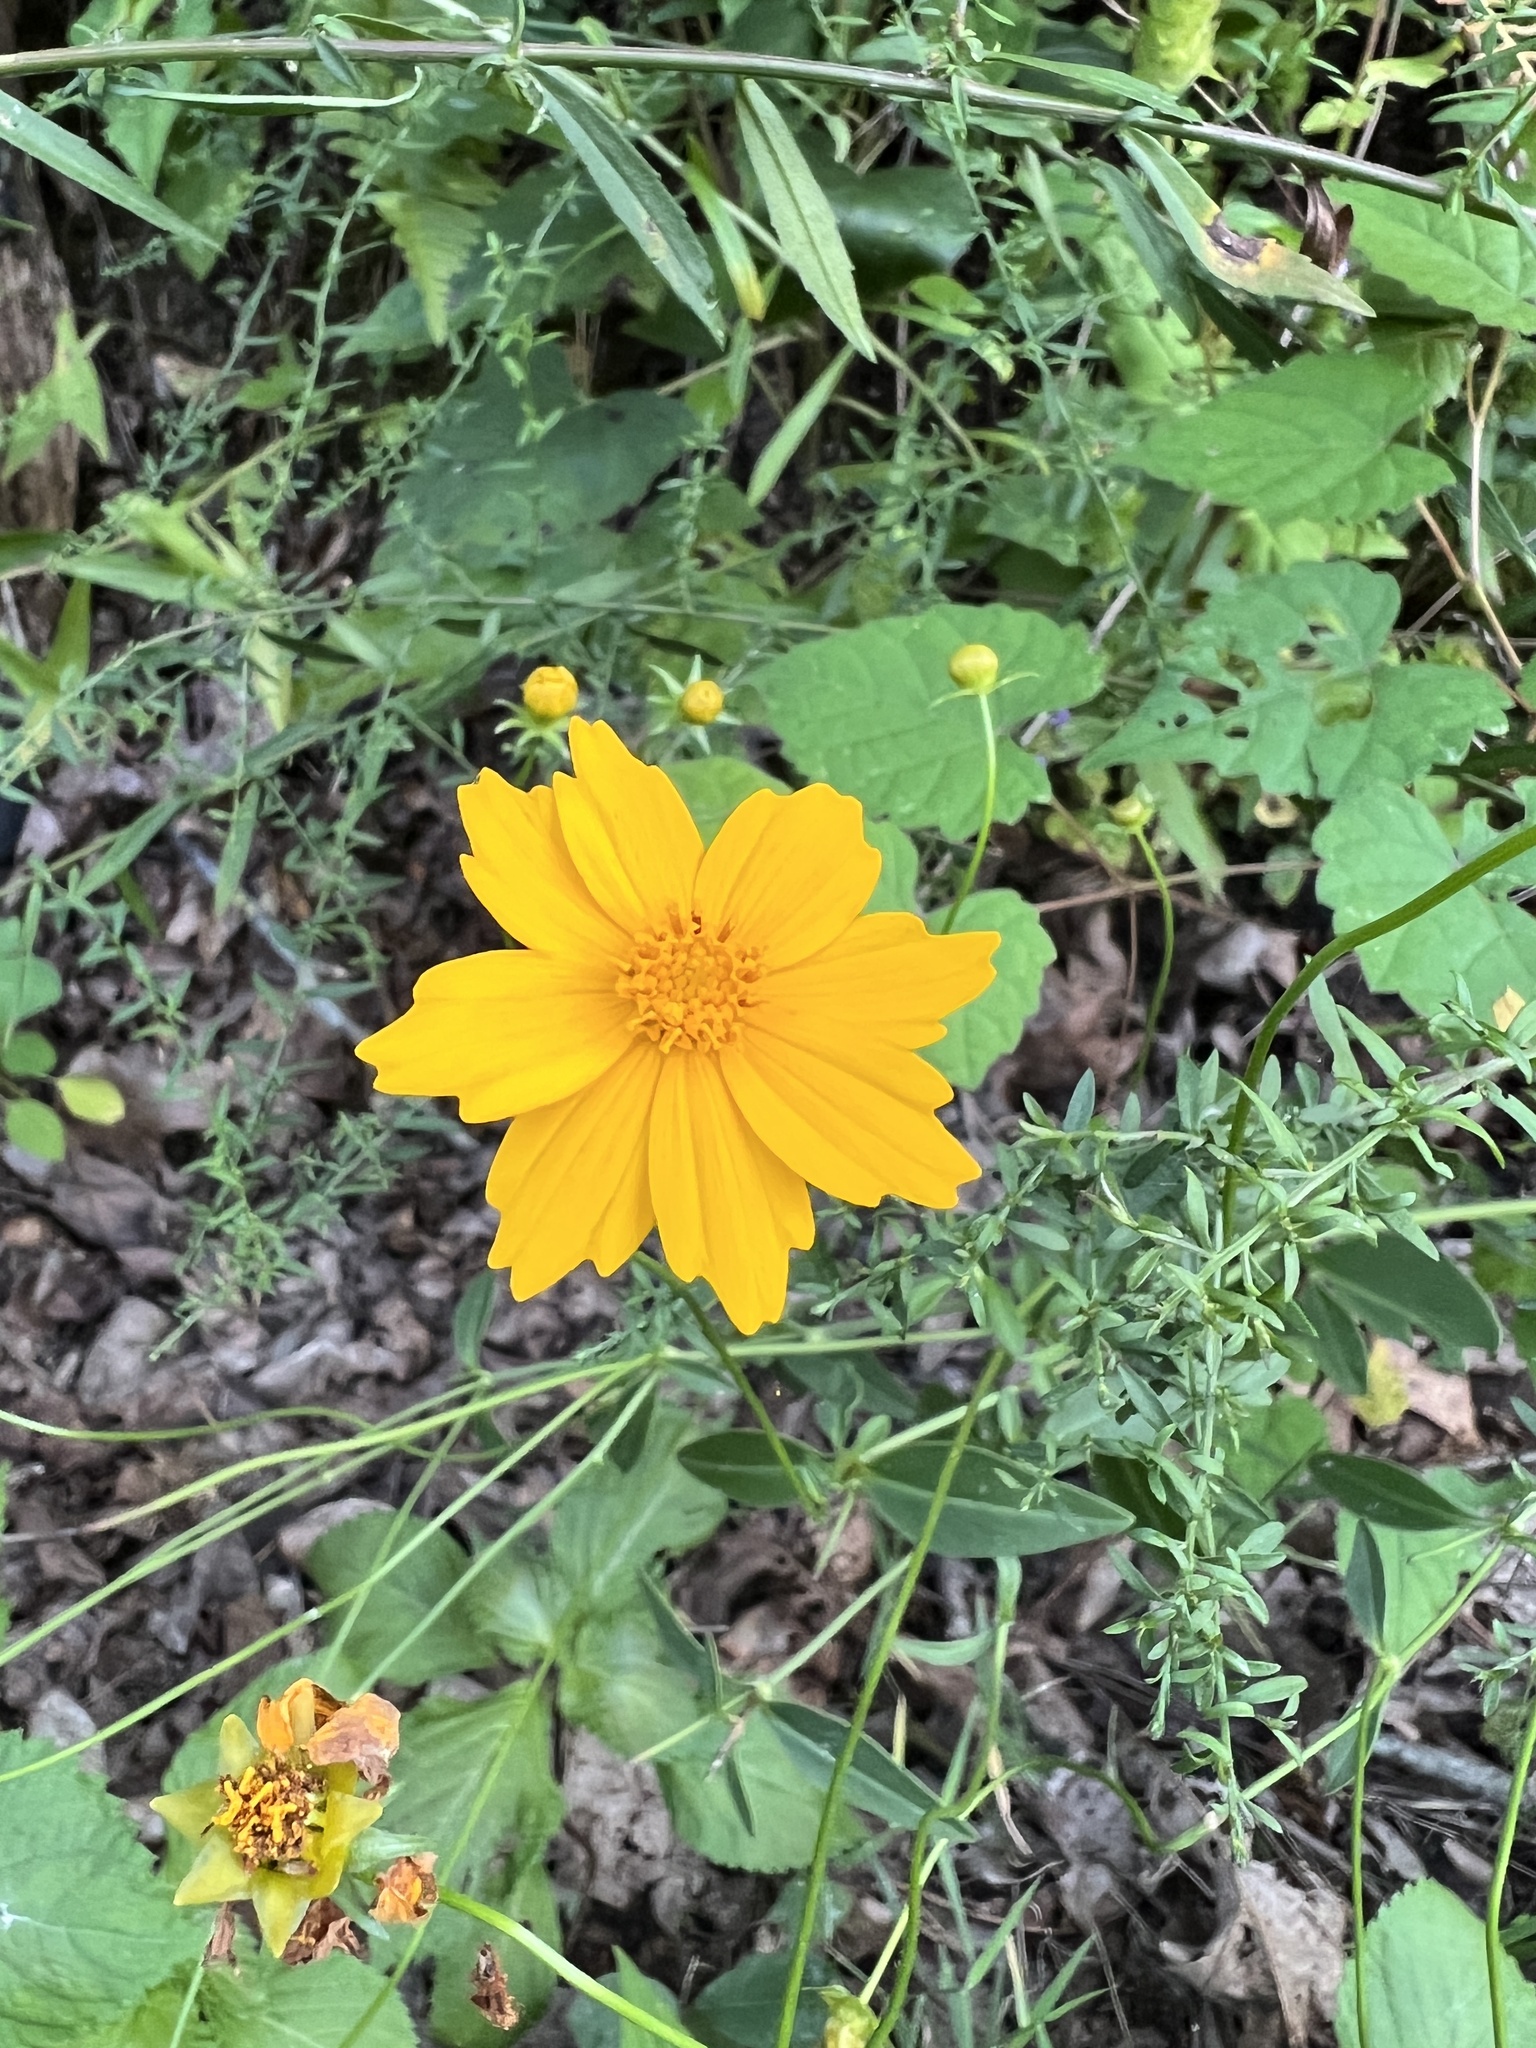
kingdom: Plantae
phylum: Tracheophyta
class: Magnoliopsida
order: Asterales
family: Asteraceae
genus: Coreopsis
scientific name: Coreopsis pubescens
